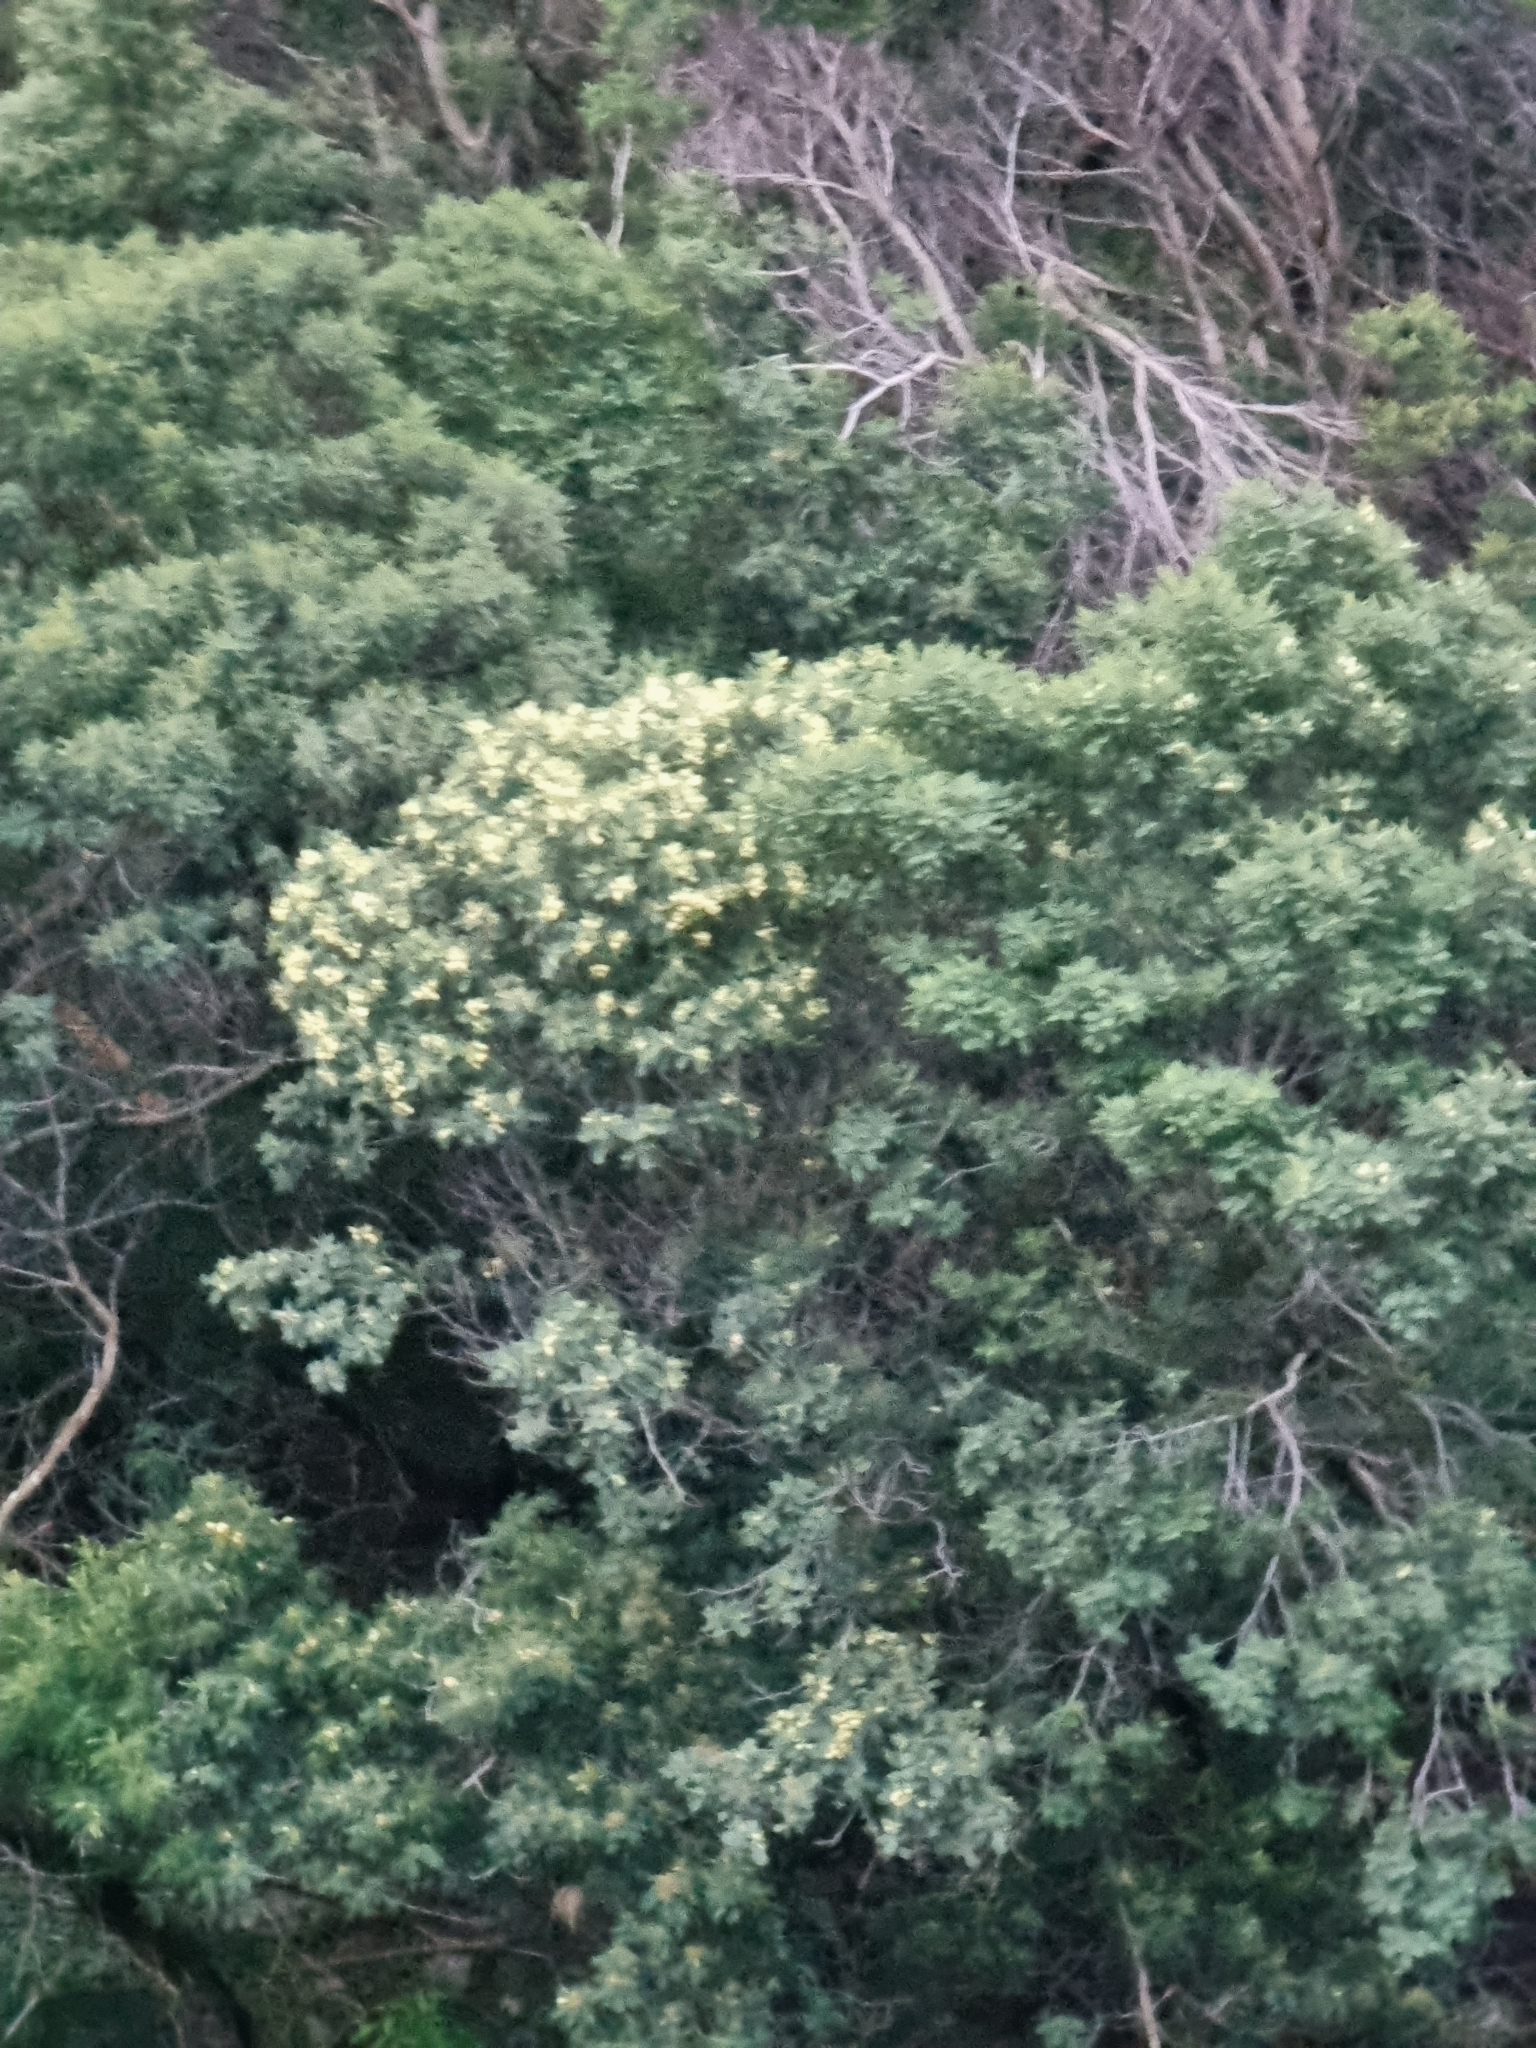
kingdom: Plantae
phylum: Tracheophyta
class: Magnoliopsida
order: Fabales
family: Fabaceae
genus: Acacia
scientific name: Acacia mearnsii
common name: Black wattle
